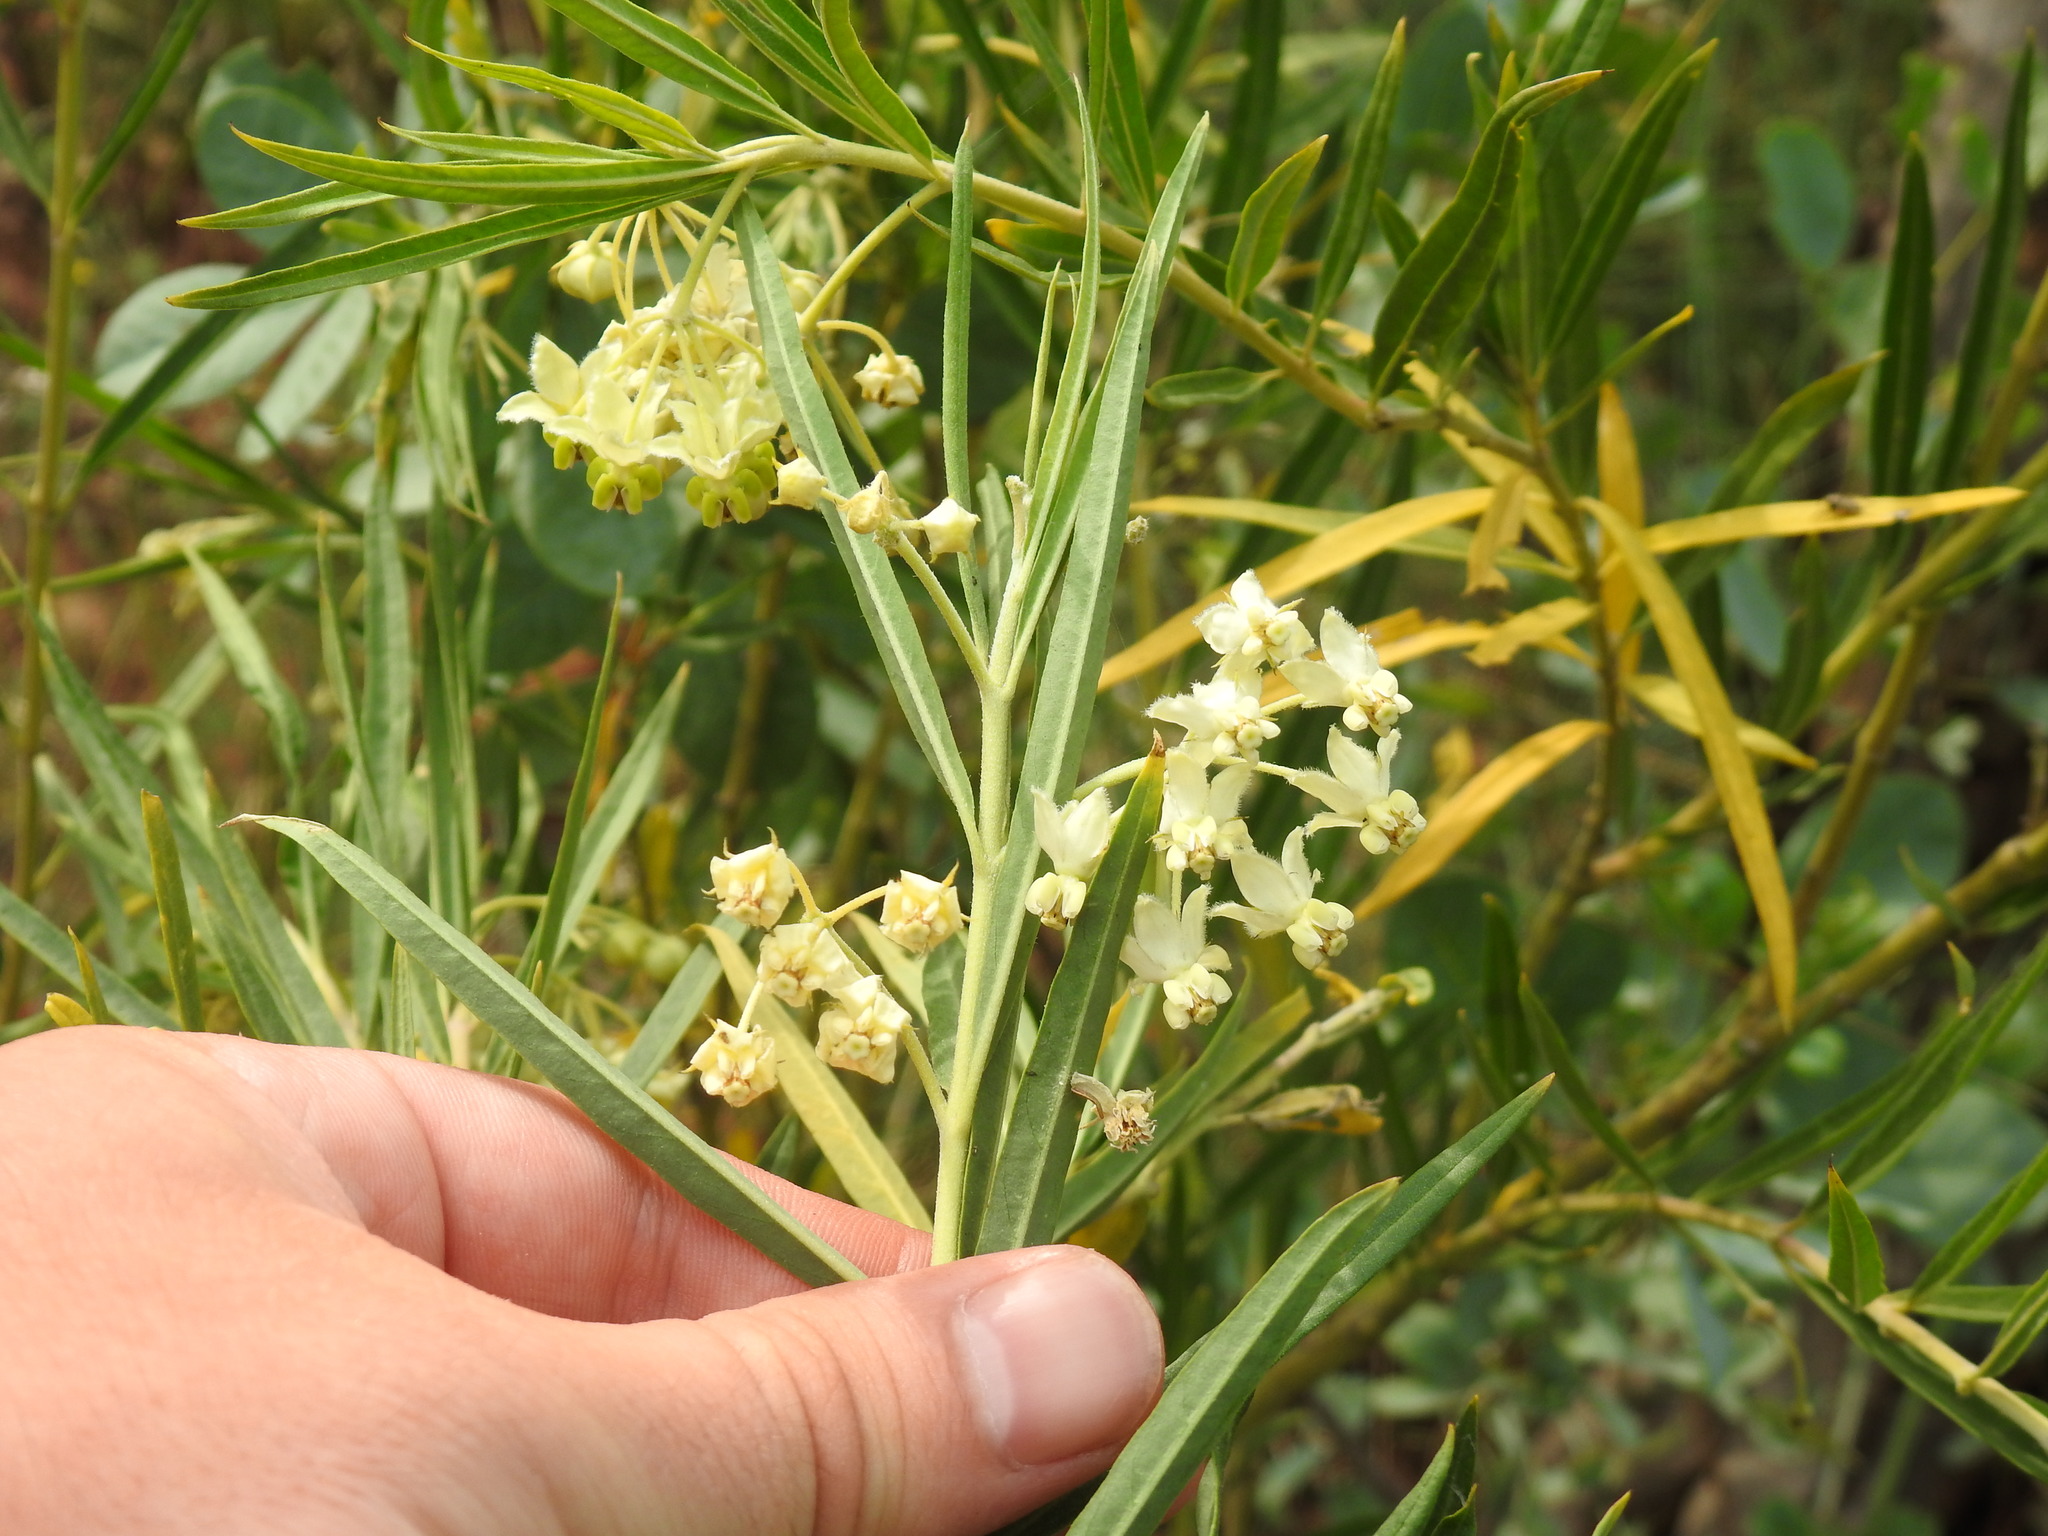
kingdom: Plantae
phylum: Tracheophyta
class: Magnoliopsida
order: Gentianales
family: Apocynaceae
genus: Gomphocarpus
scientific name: Gomphocarpus fruticosus
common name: Milkweed
